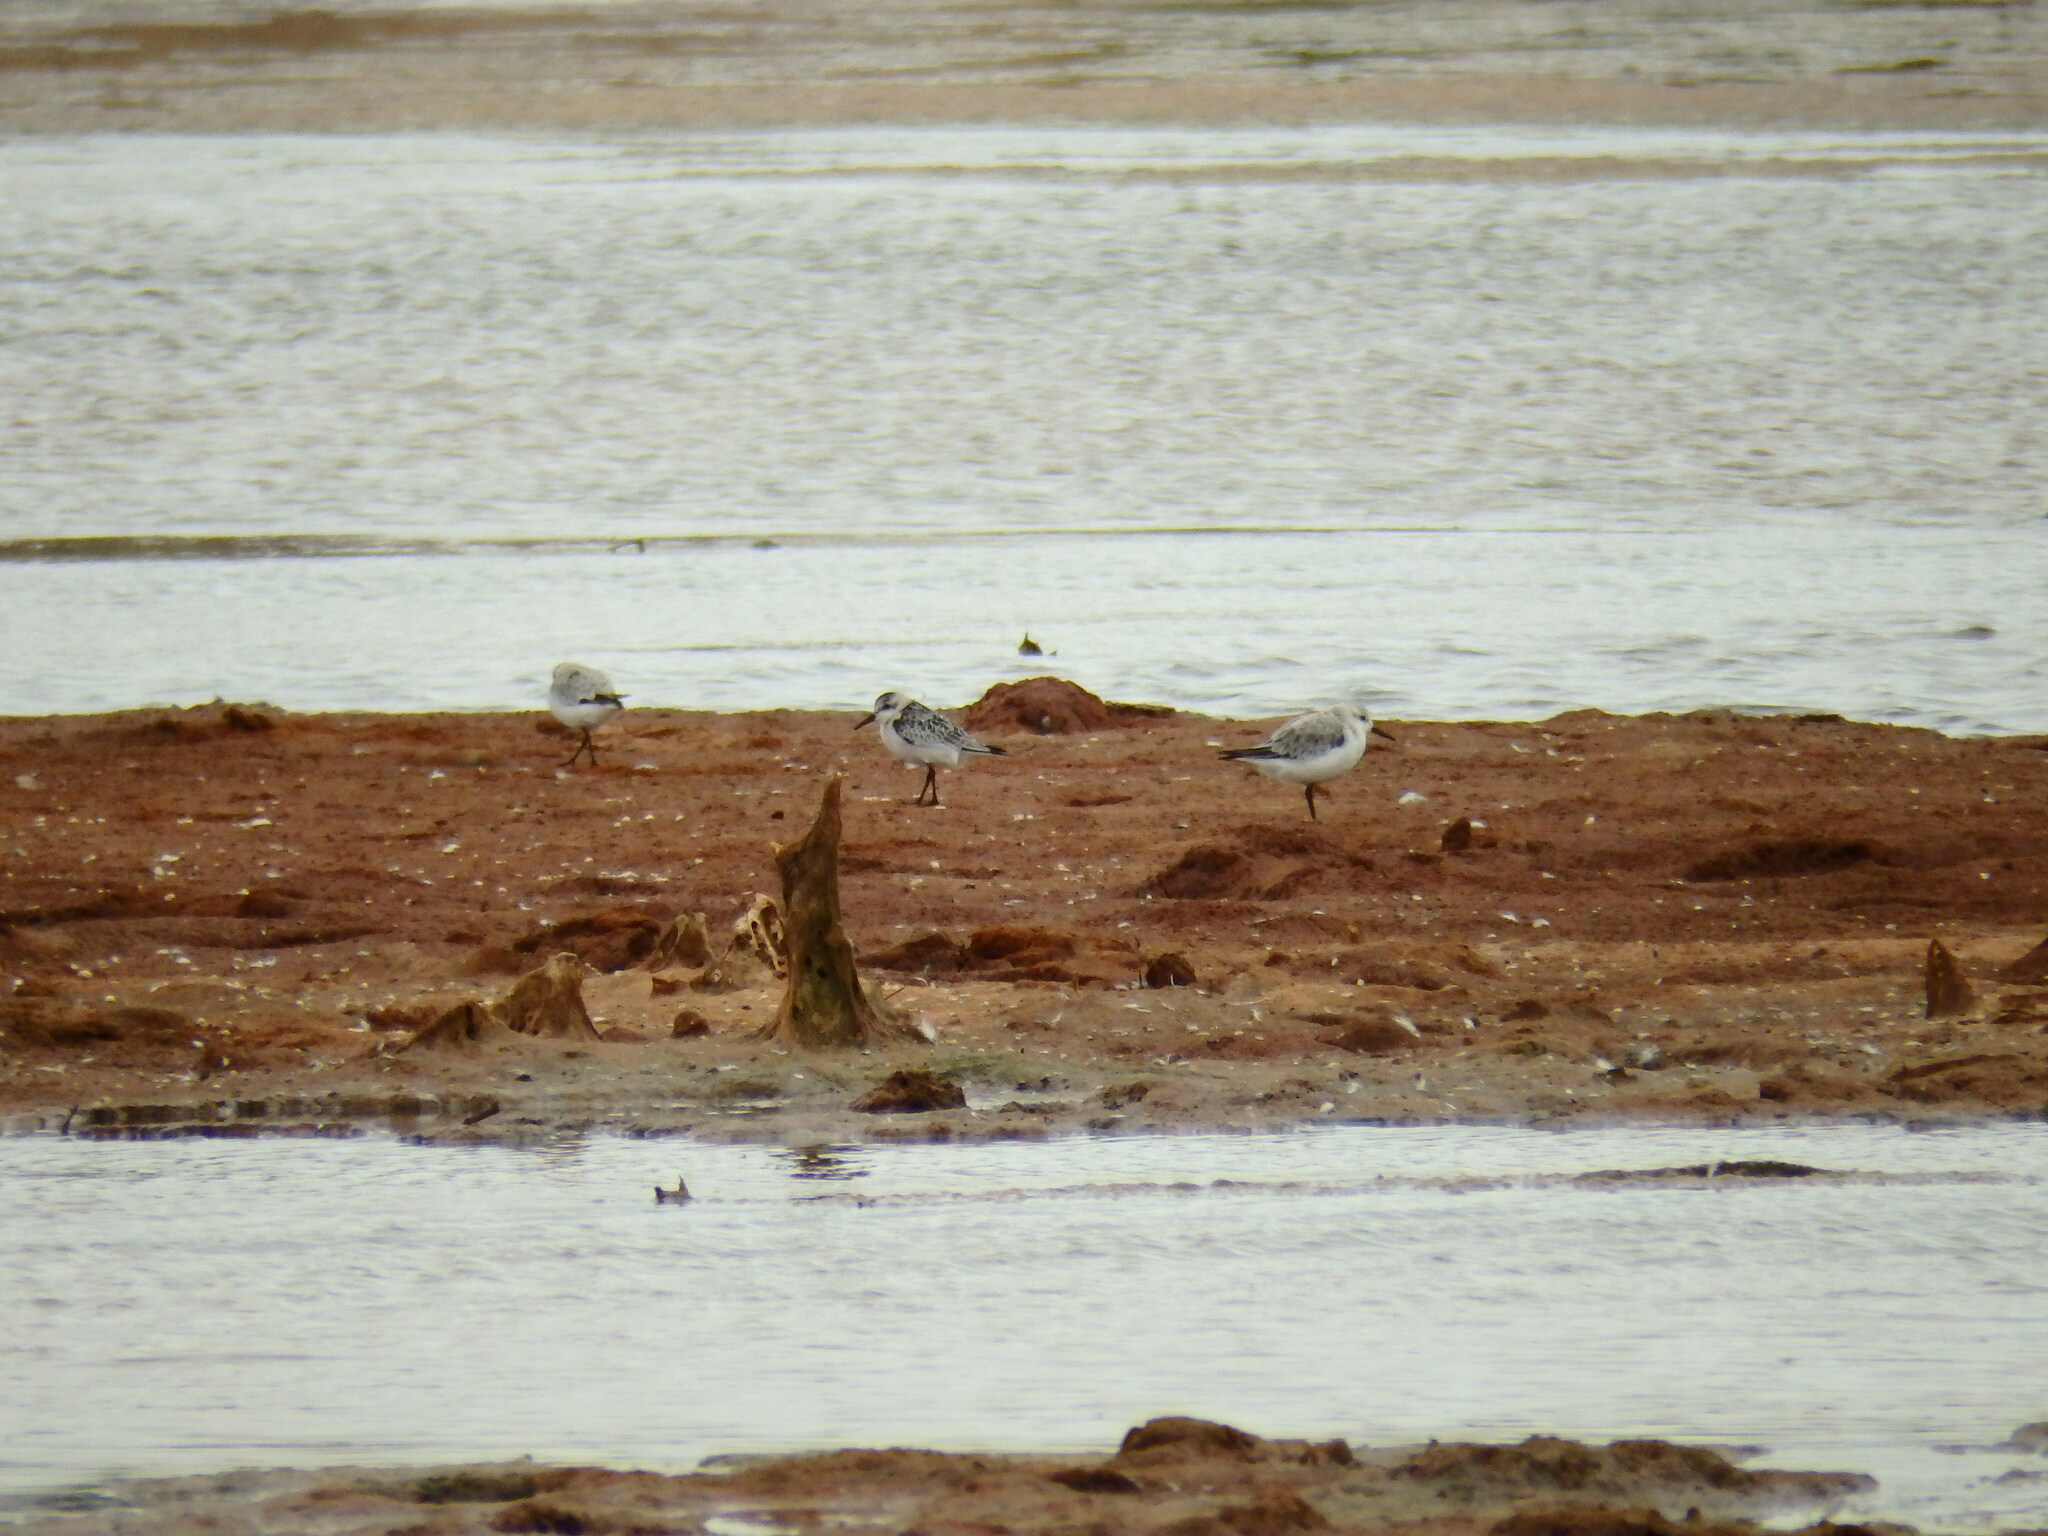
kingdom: Animalia
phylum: Chordata
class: Aves
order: Charadriiformes
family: Scolopacidae
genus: Calidris
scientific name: Calidris alba
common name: Sanderling
